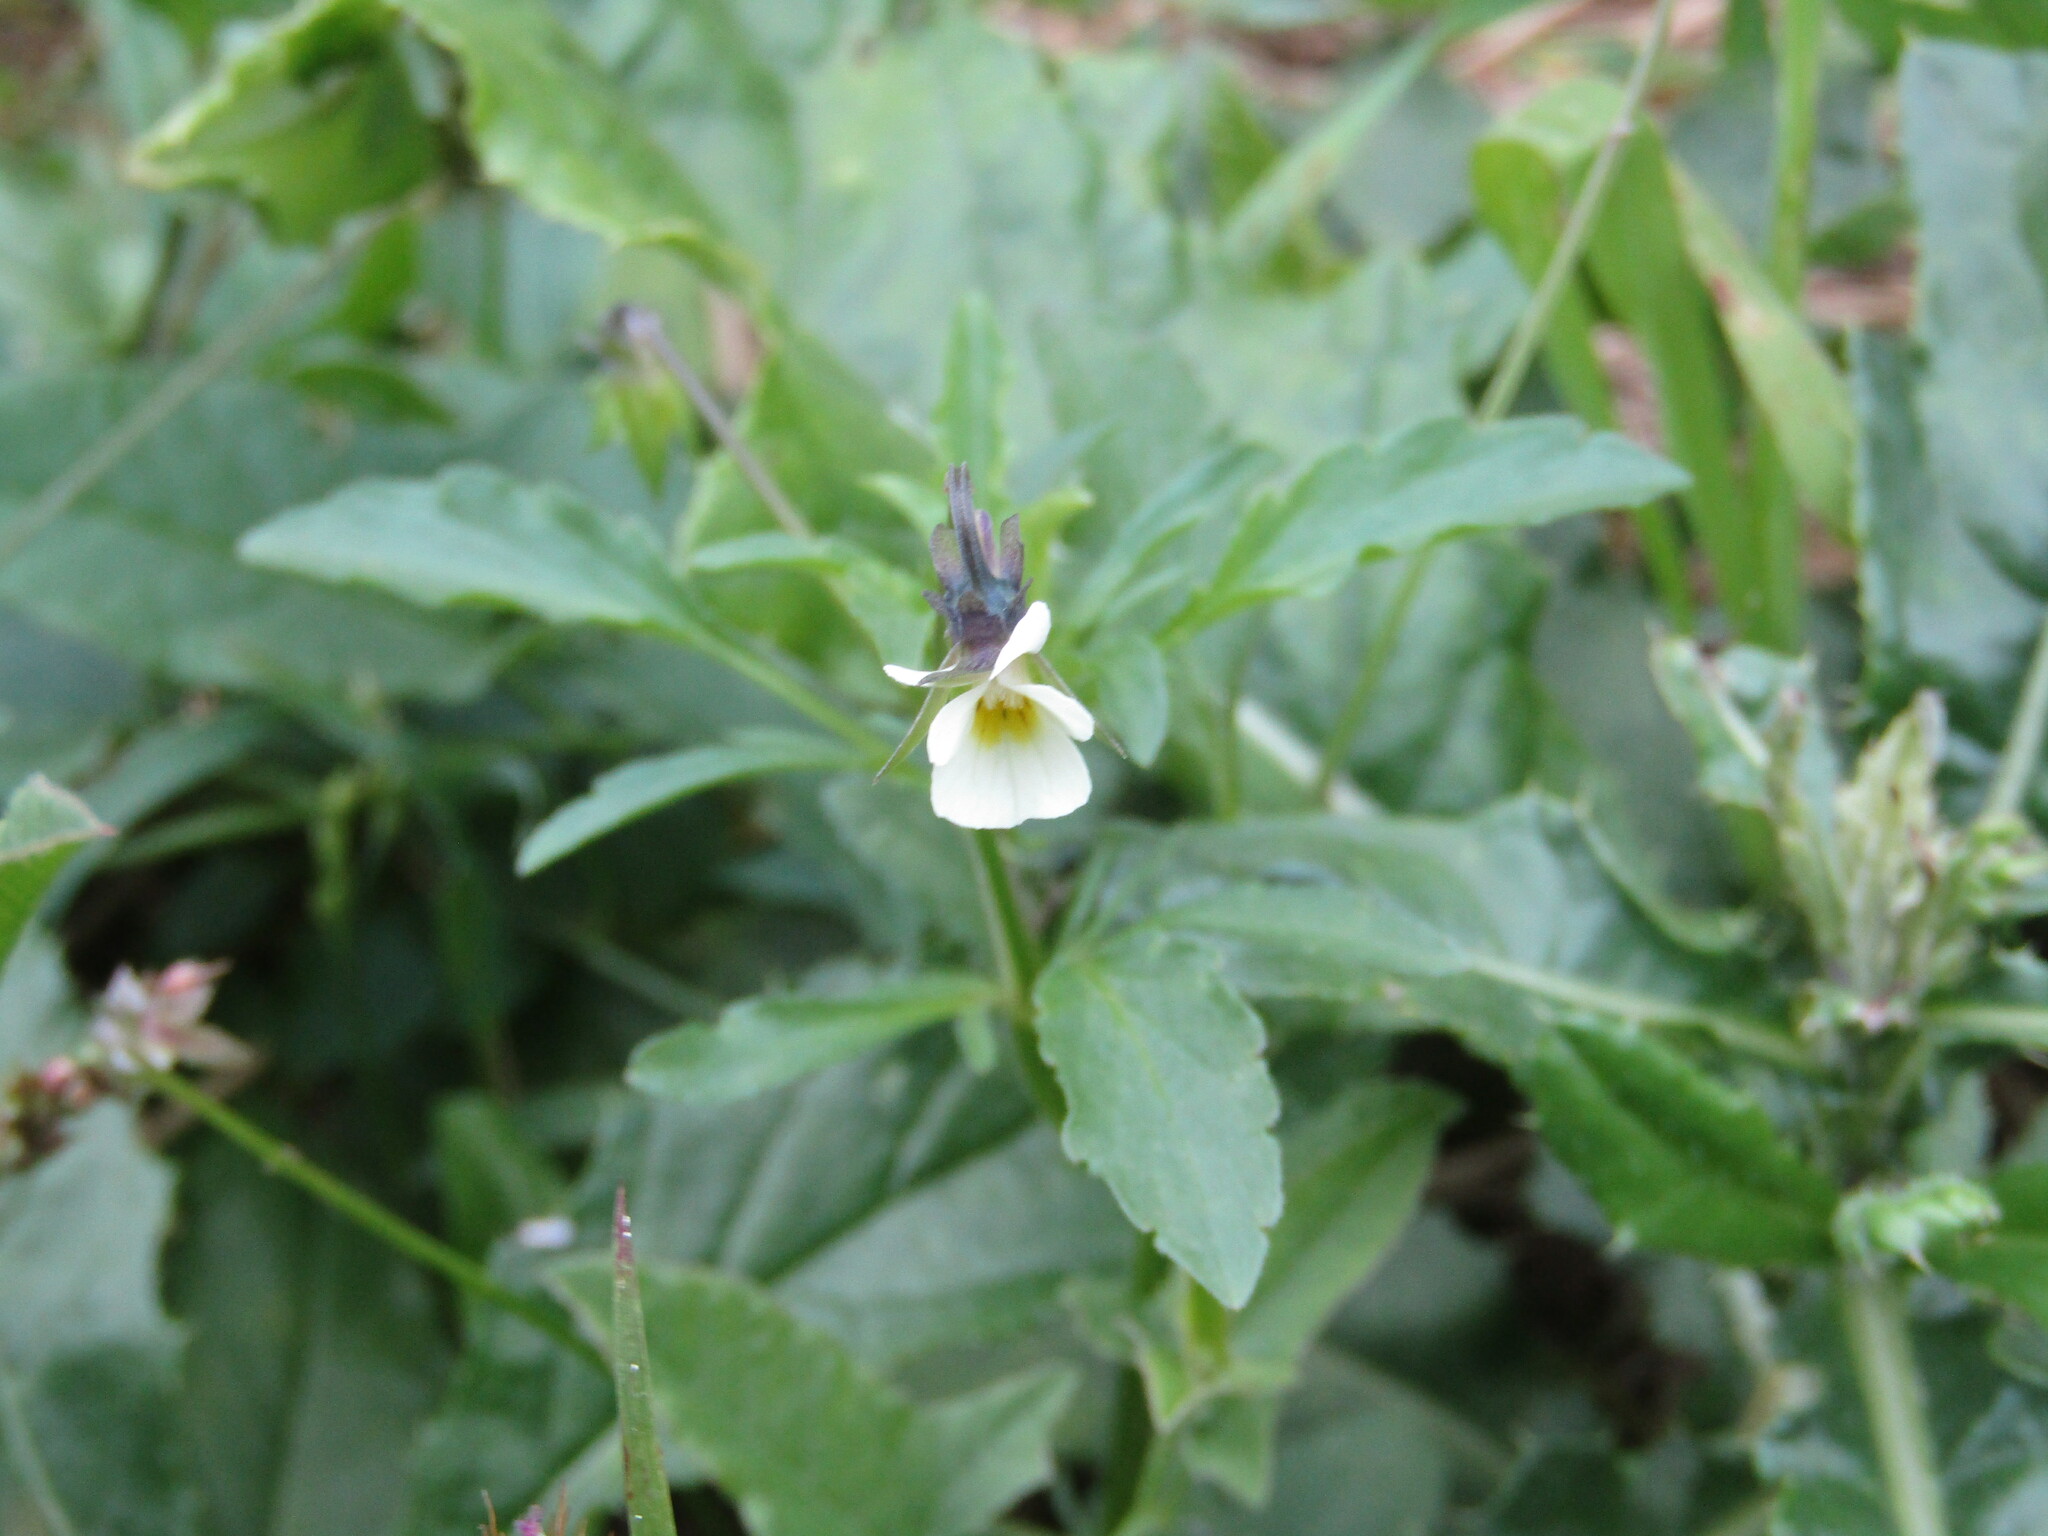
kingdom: Plantae
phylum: Tracheophyta
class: Magnoliopsida
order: Malpighiales
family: Violaceae
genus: Viola
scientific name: Viola arvensis
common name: Field pansy
